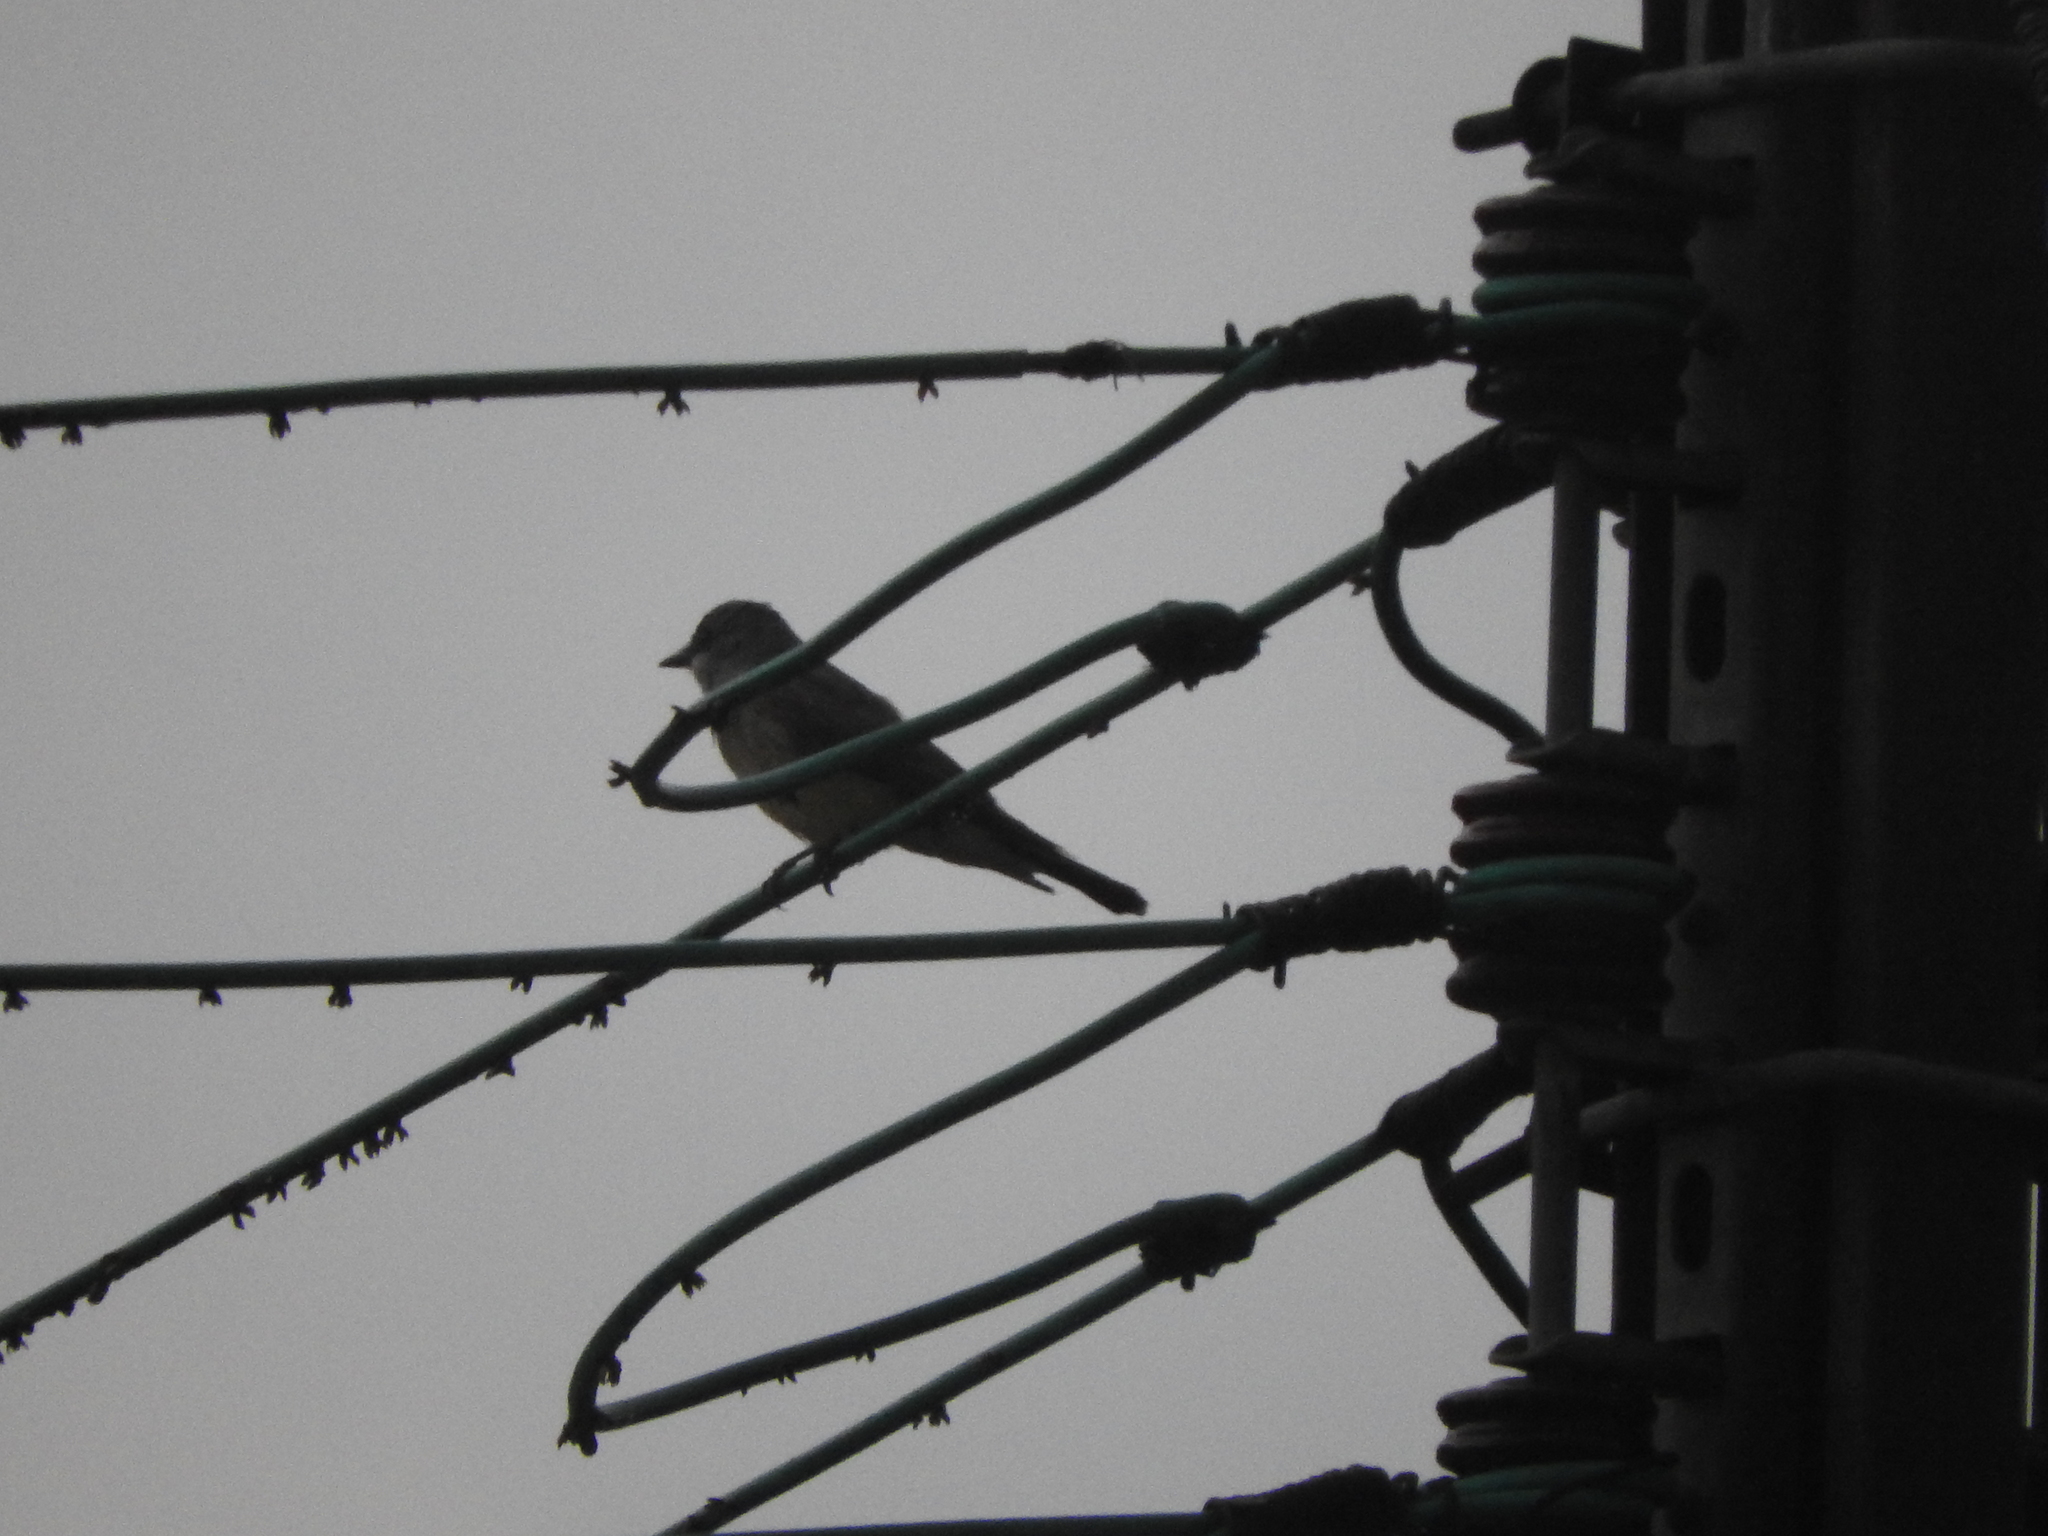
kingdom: Animalia
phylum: Chordata
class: Aves
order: Passeriformes
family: Tyrannidae
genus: Tyrannus
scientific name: Tyrannus vociferans
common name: Cassin's kingbird
